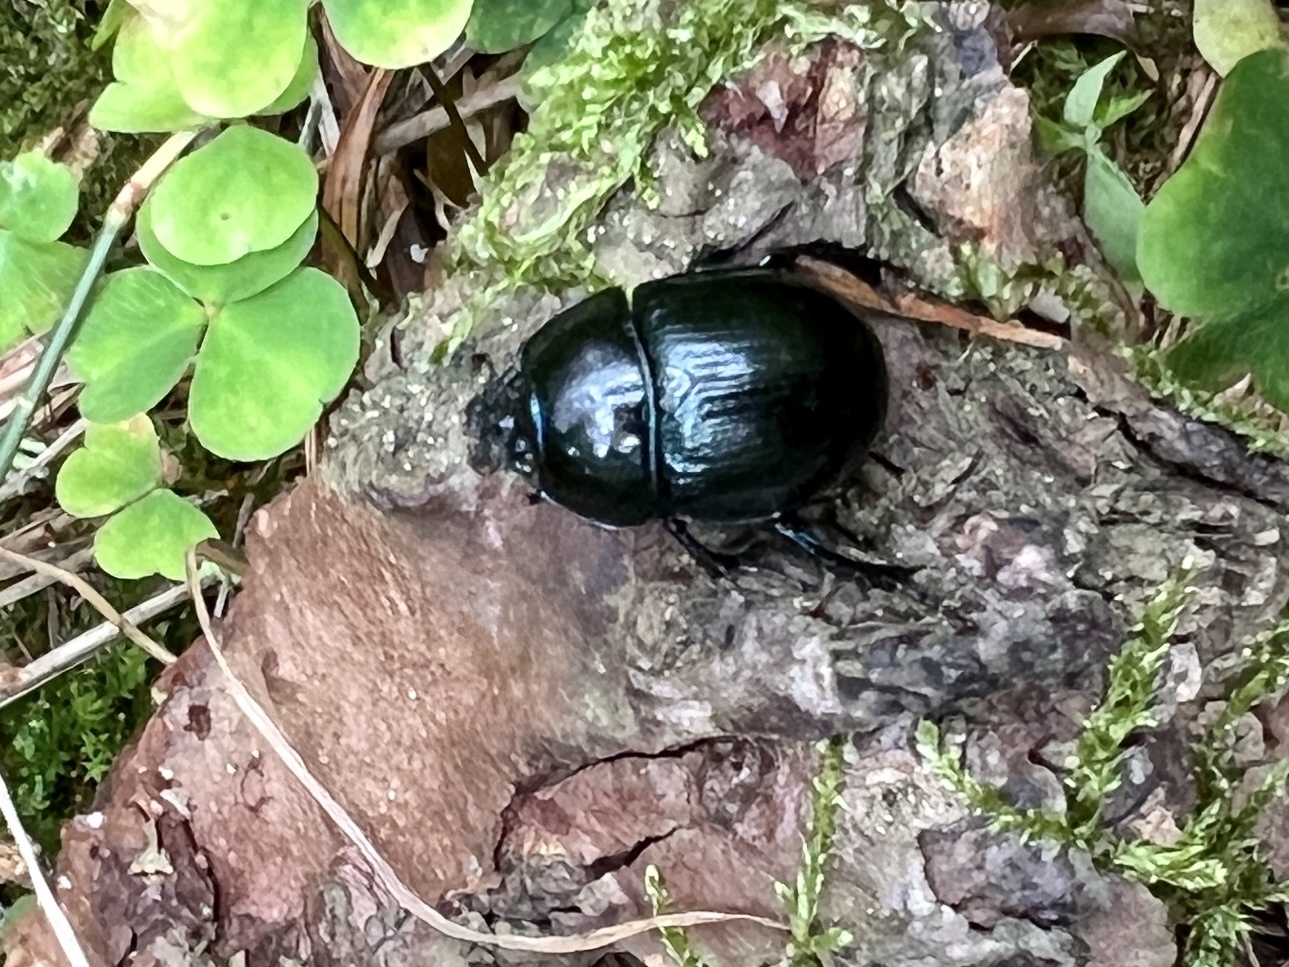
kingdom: Animalia
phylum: Arthropoda
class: Insecta
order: Coleoptera
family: Geotrupidae
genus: Anoplotrupes
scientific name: Anoplotrupes stercorosus
